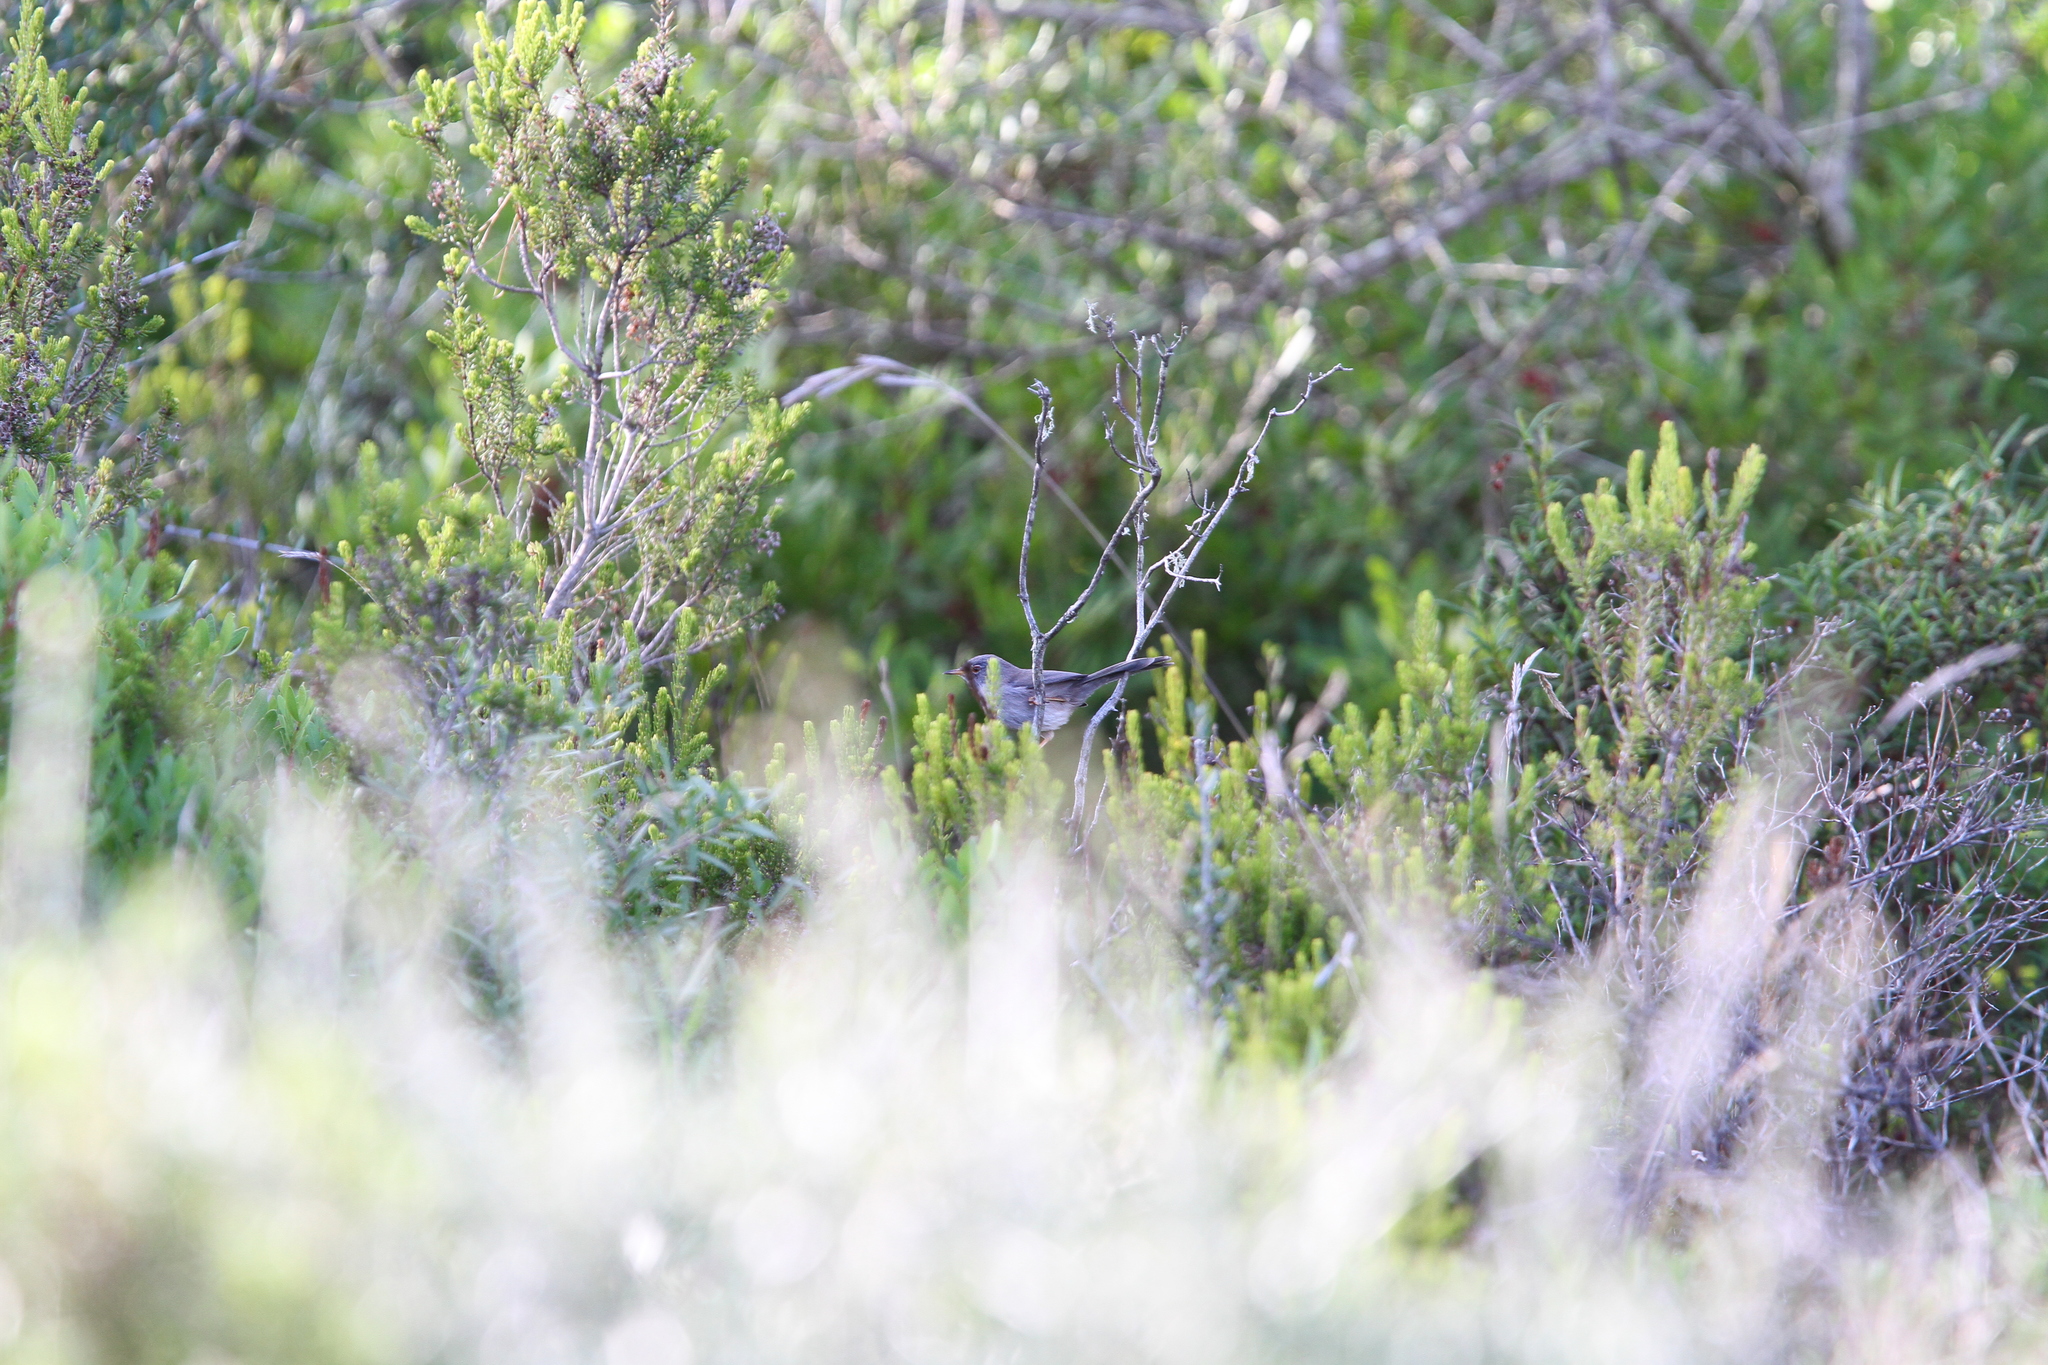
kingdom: Animalia
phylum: Chordata
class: Aves
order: Passeriformes
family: Sylviidae
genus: Curruca
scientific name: Curruca balearica
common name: Balearic warbler
